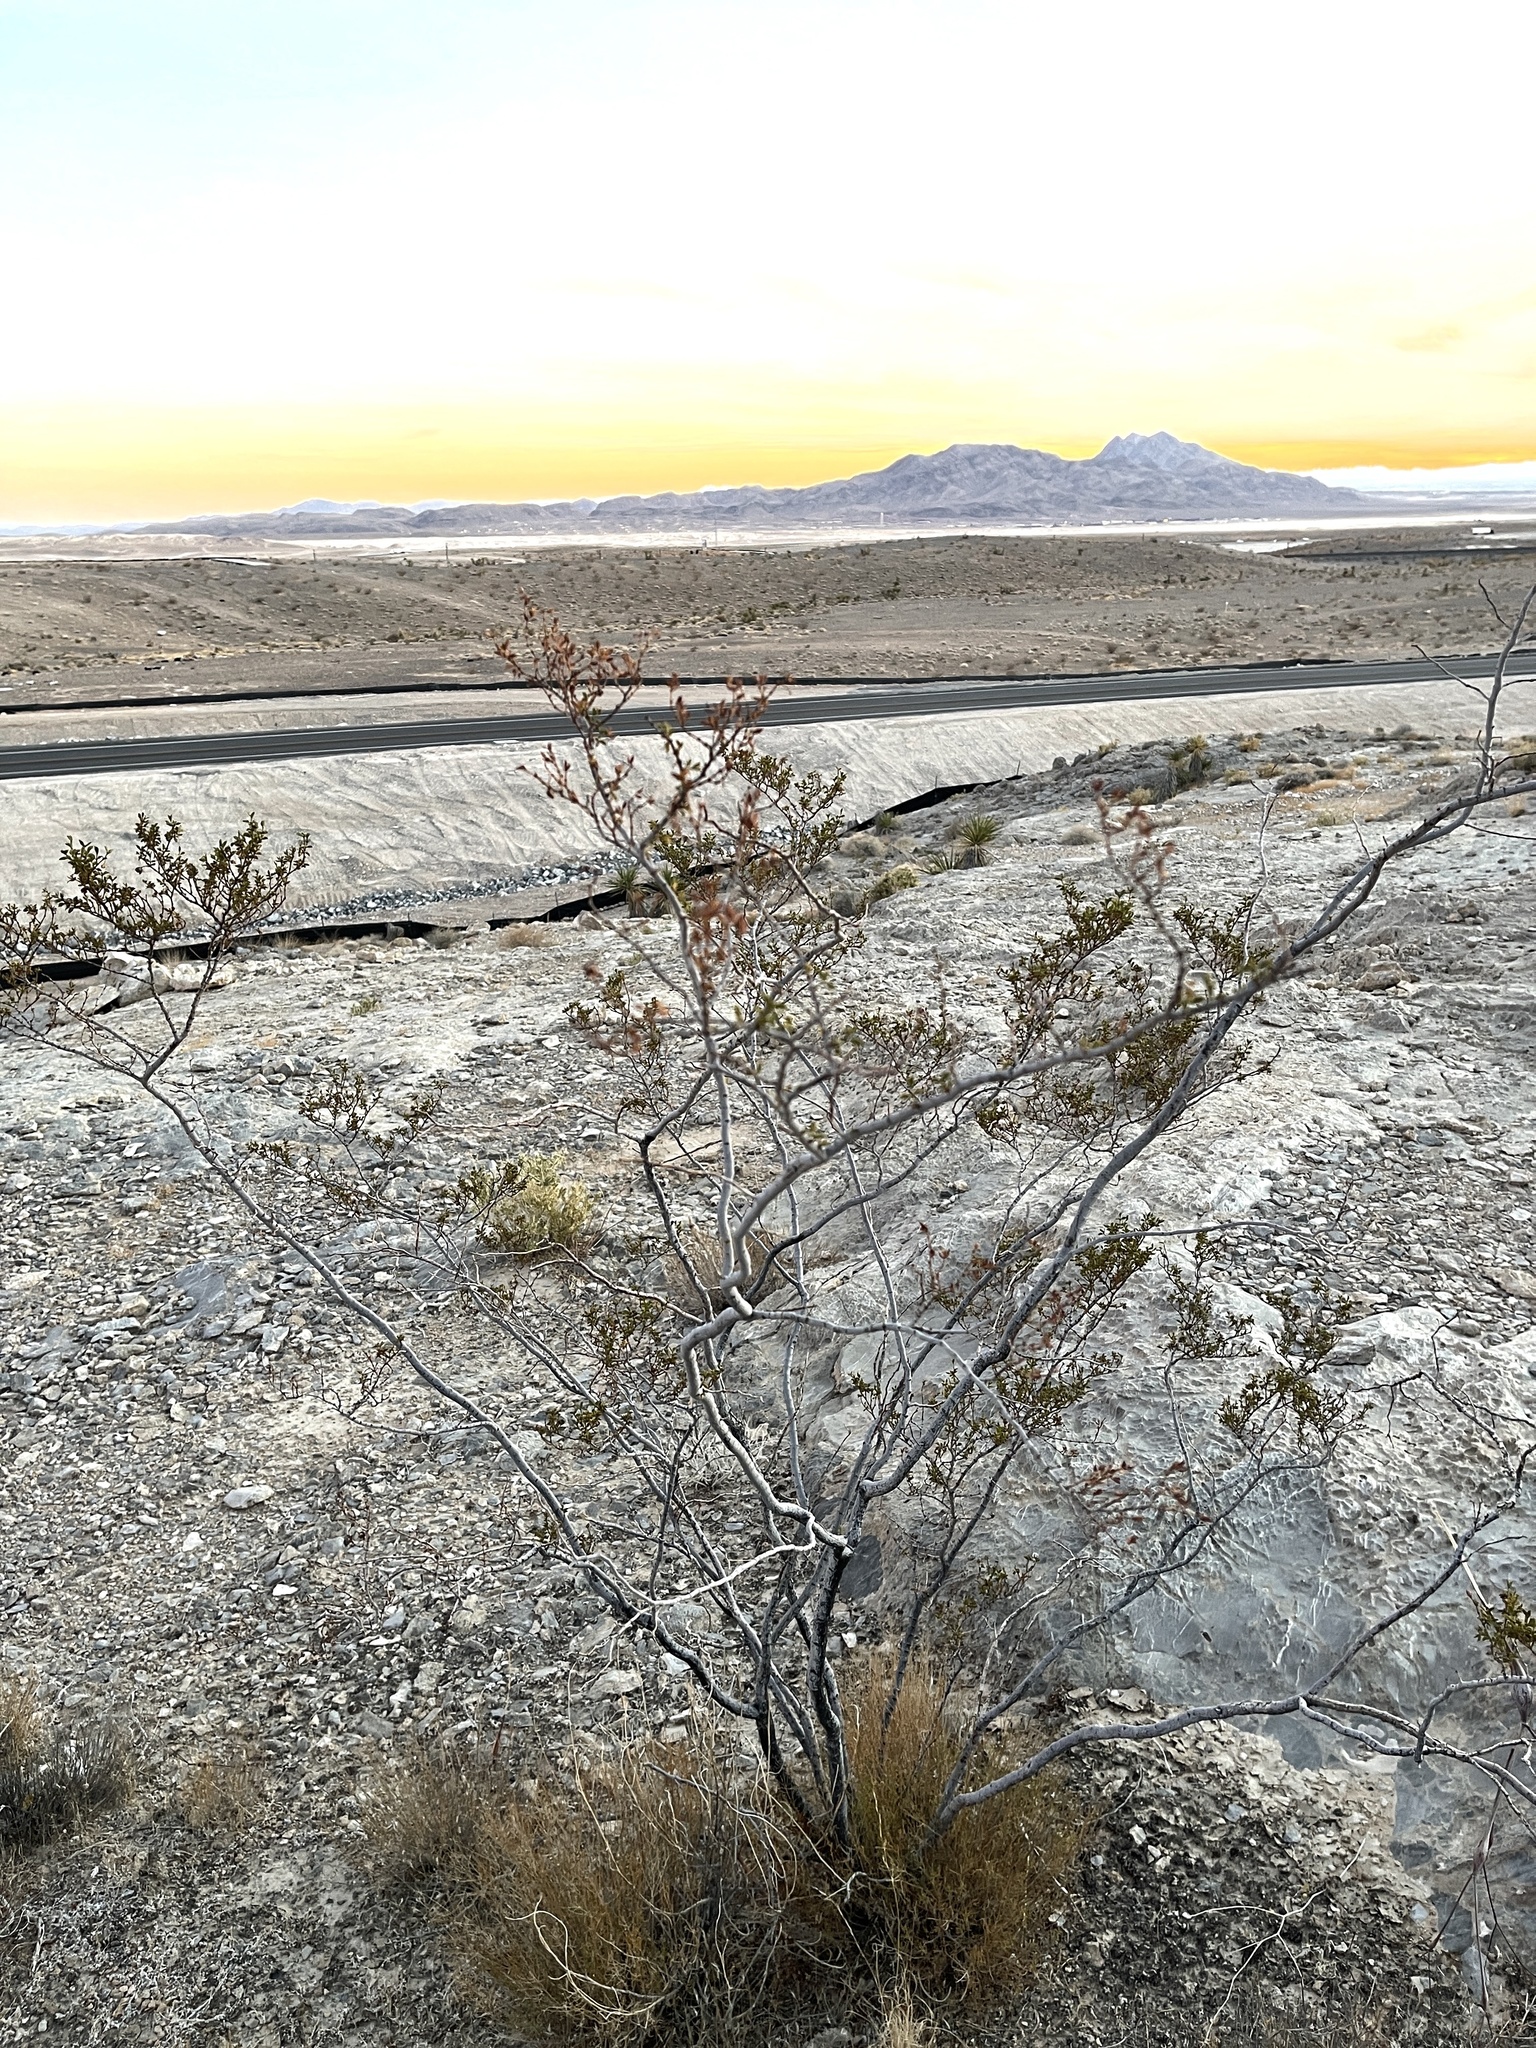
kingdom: Plantae
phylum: Tracheophyta
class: Magnoliopsida
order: Zygophyllales
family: Zygophyllaceae
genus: Larrea
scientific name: Larrea tridentata
